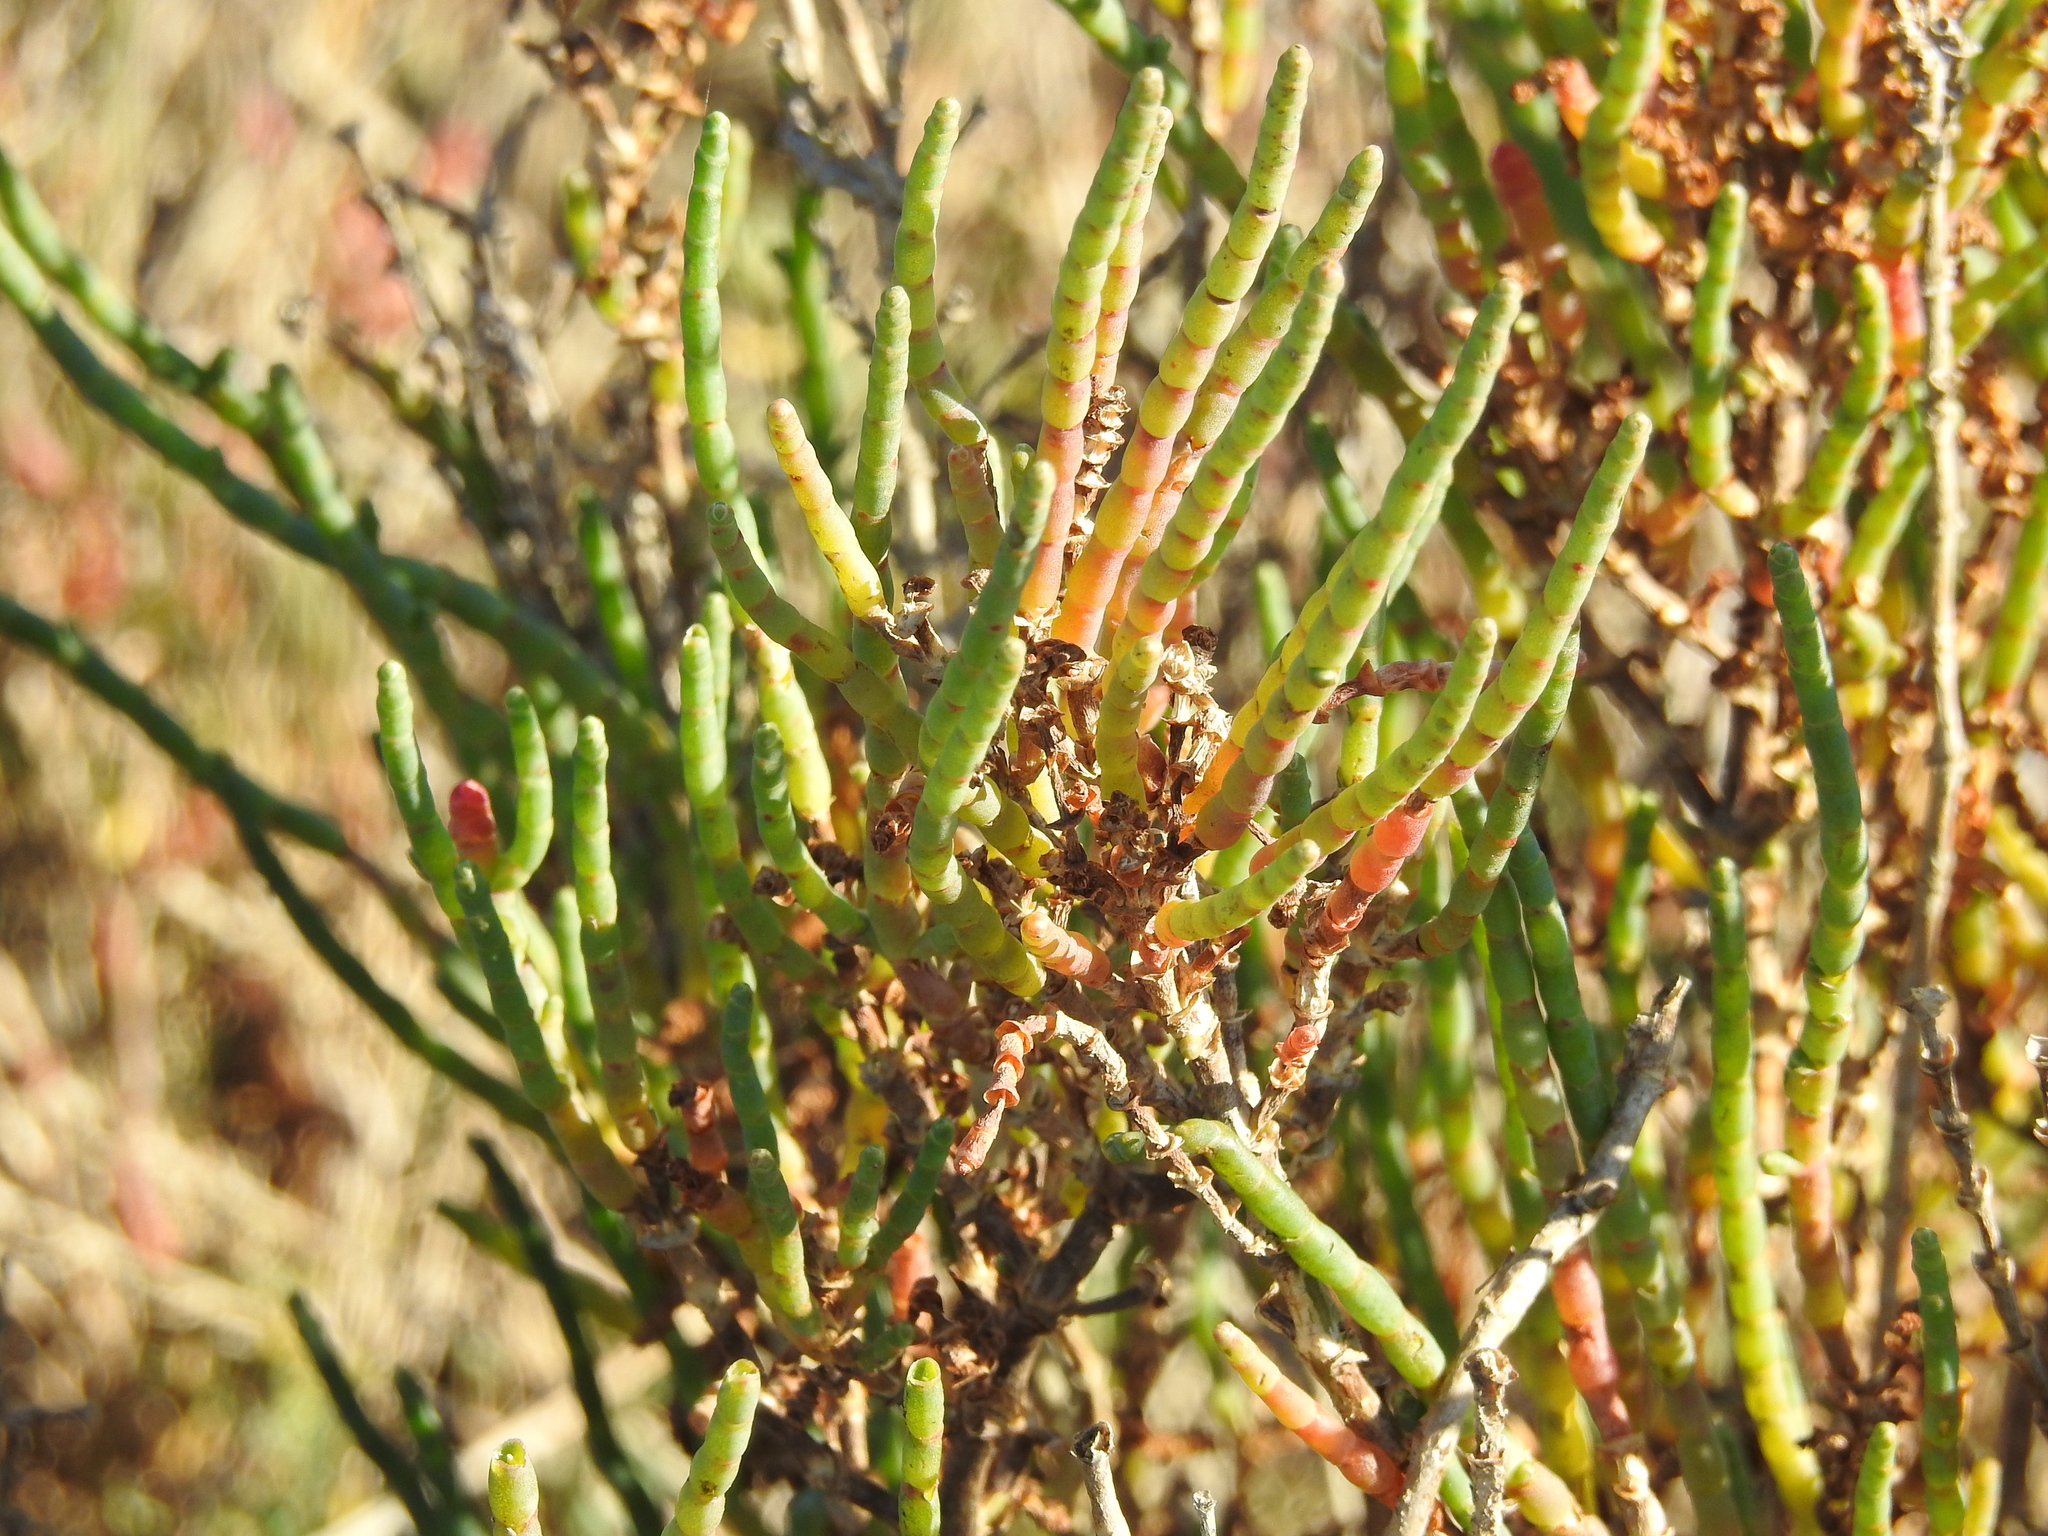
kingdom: Plantae
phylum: Tracheophyta
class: Magnoliopsida
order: Caryophyllales
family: Amaranthaceae
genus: Salicornia
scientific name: Salicornia pacifica
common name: Pacific glasswort
